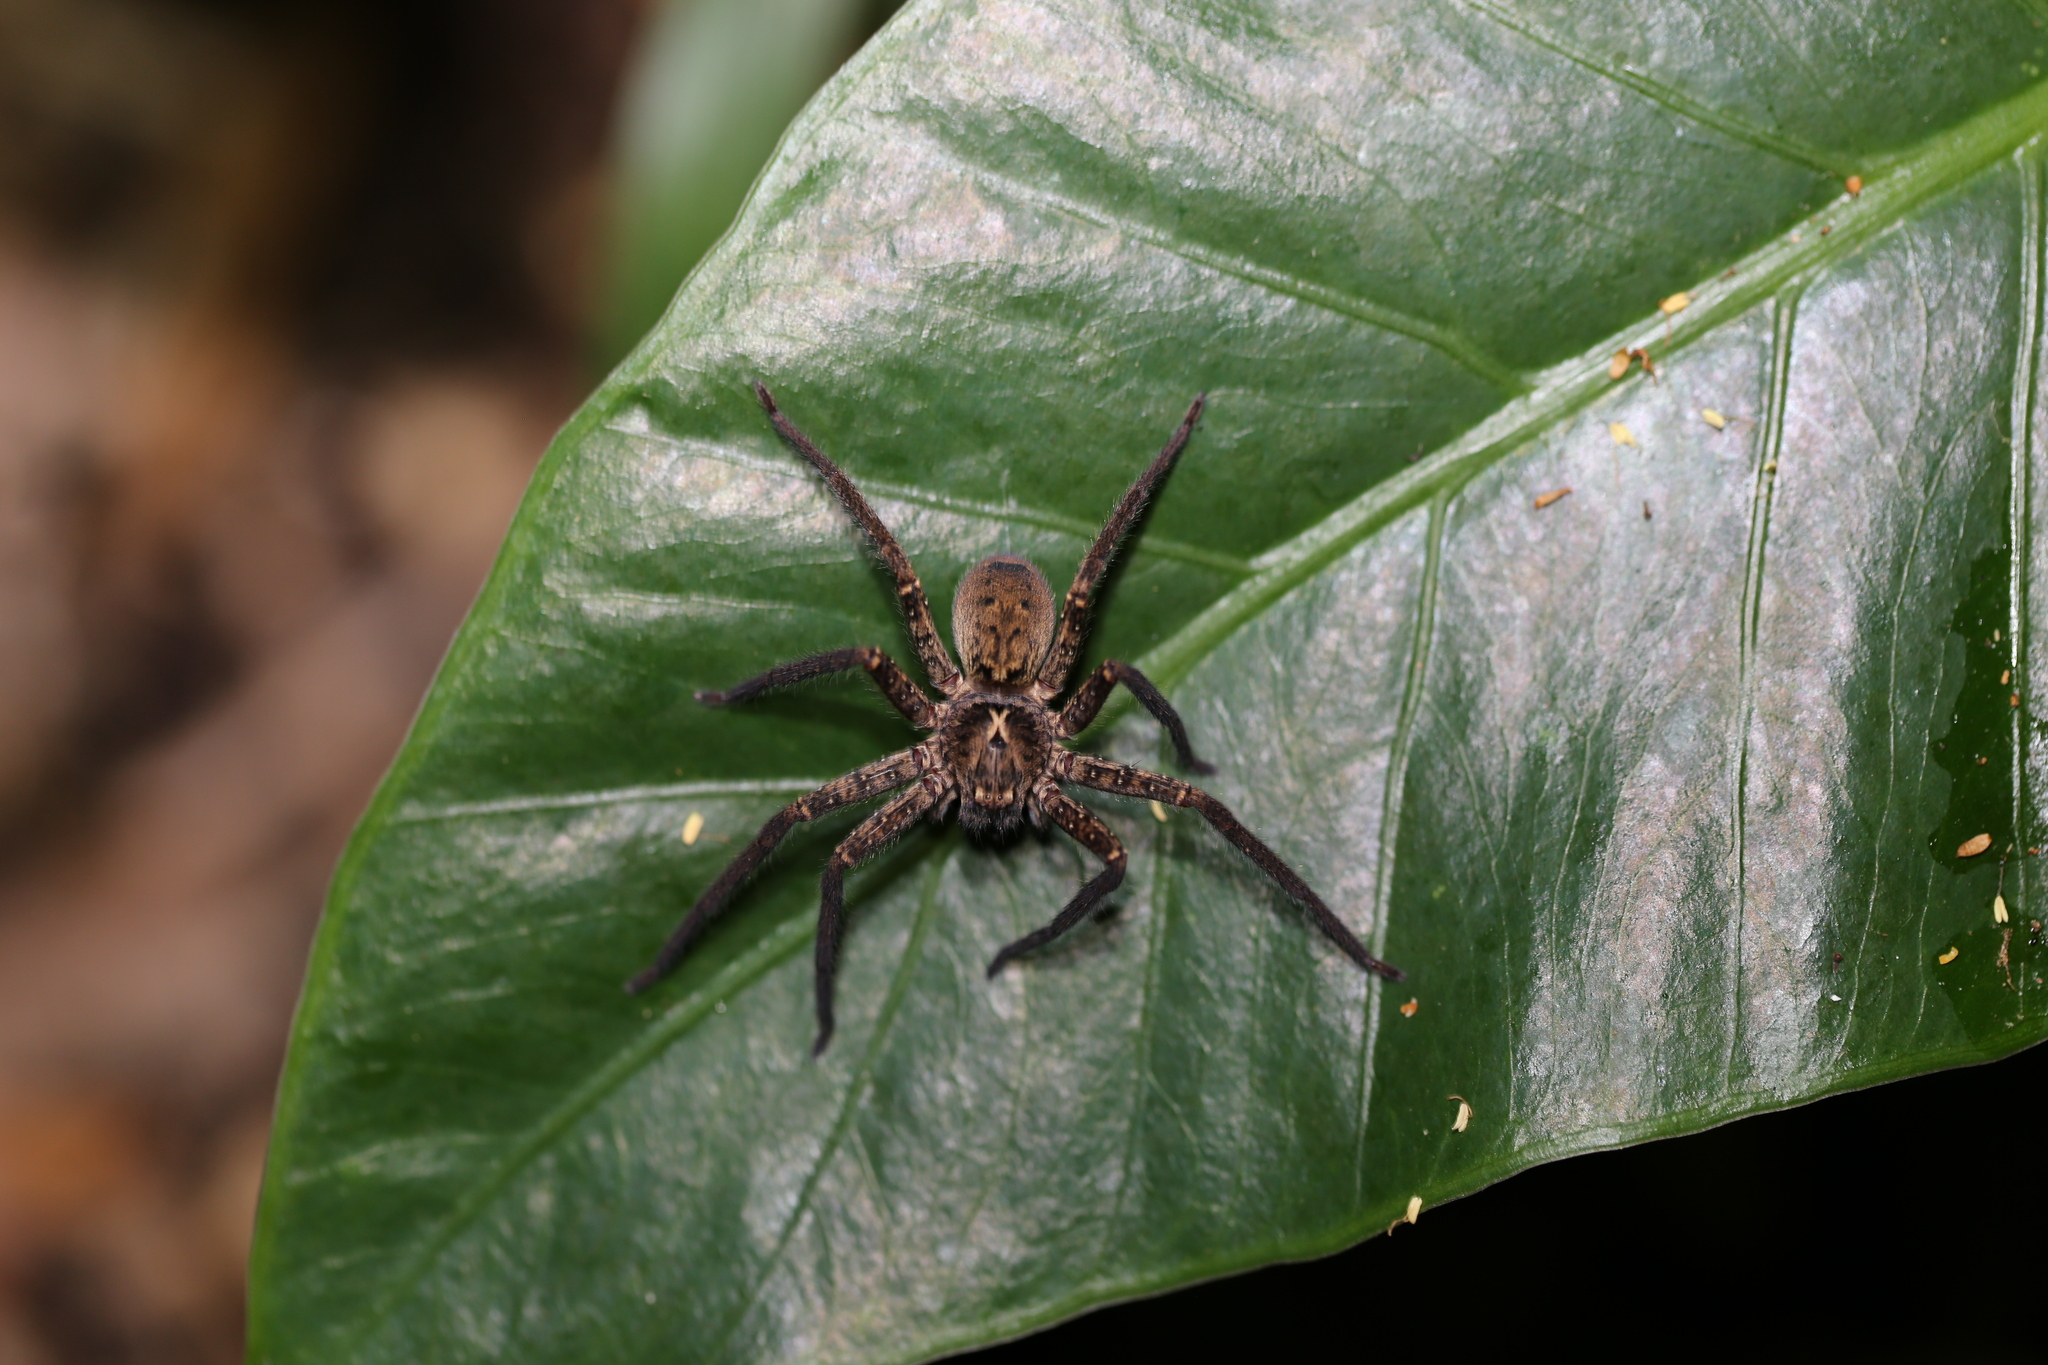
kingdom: Animalia
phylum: Arthropoda
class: Arachnida
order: Araneae
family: Sparassidae
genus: Heteropoda
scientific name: Heteropoda hillerae
